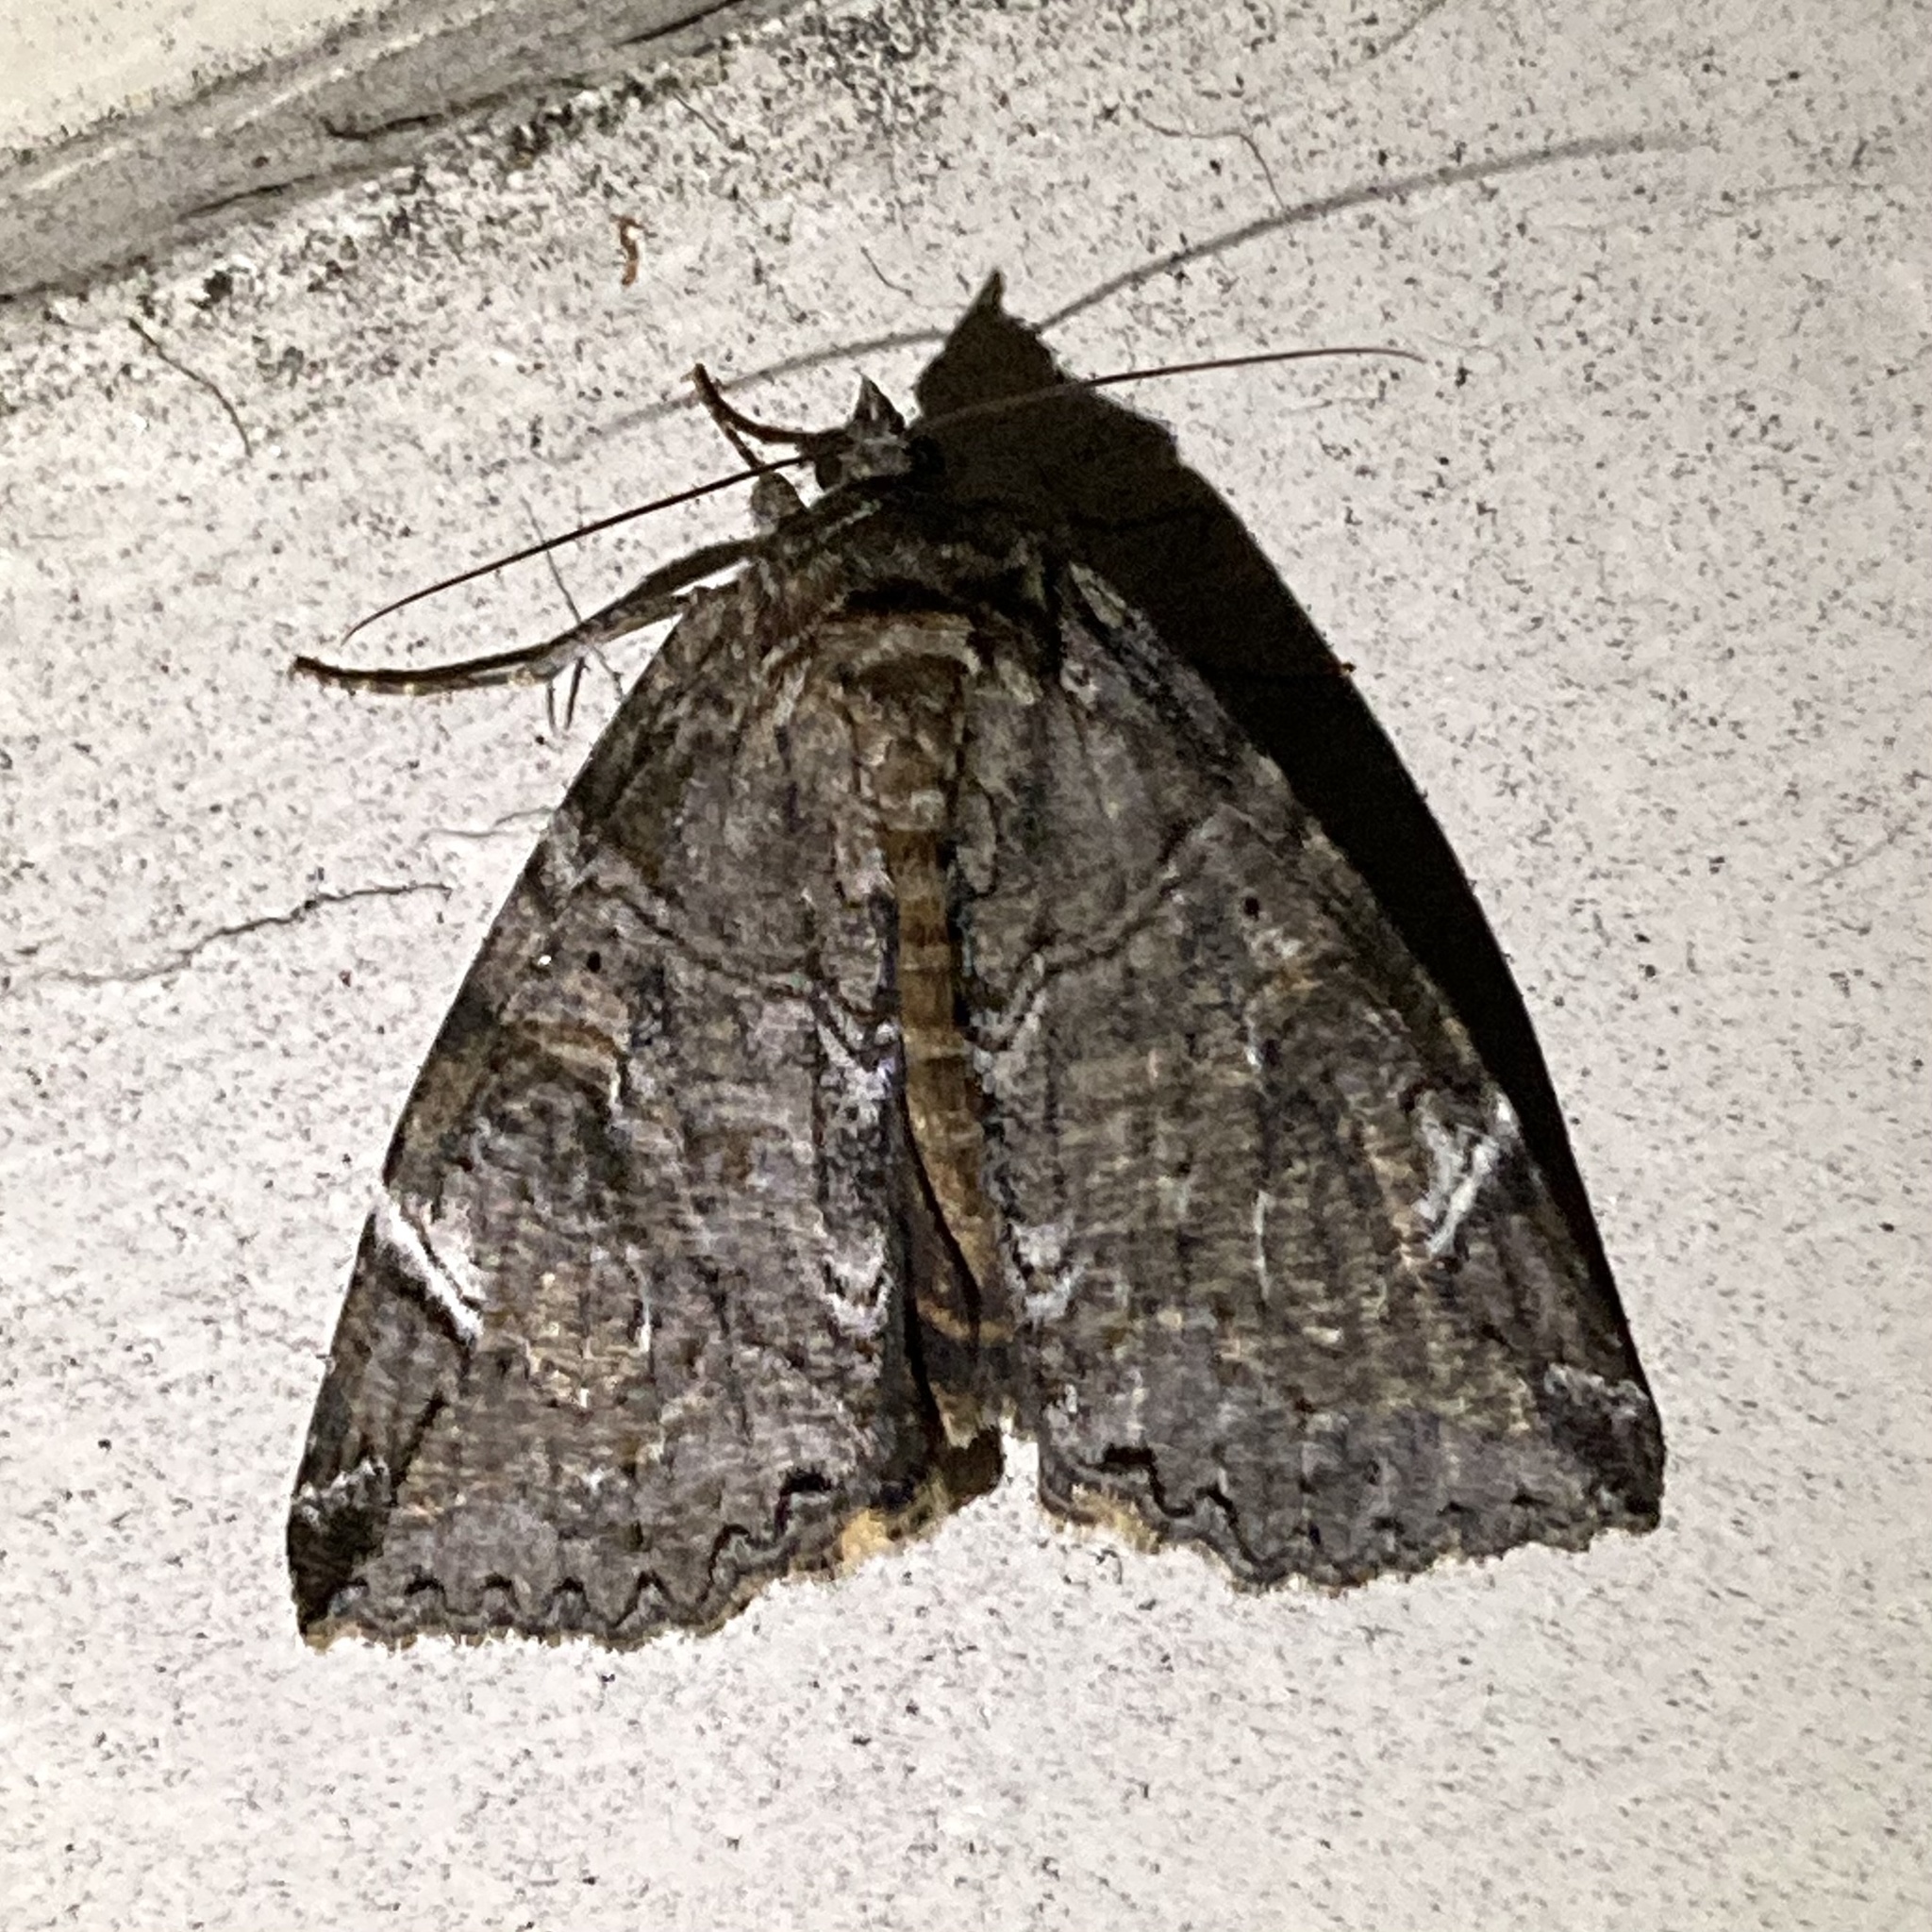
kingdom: Animalia
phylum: Arthropoda
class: Insecta
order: Lepidoptera
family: Erebidae
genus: Euparthenos
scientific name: Euparthenos nubilis
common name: Locust underwing
